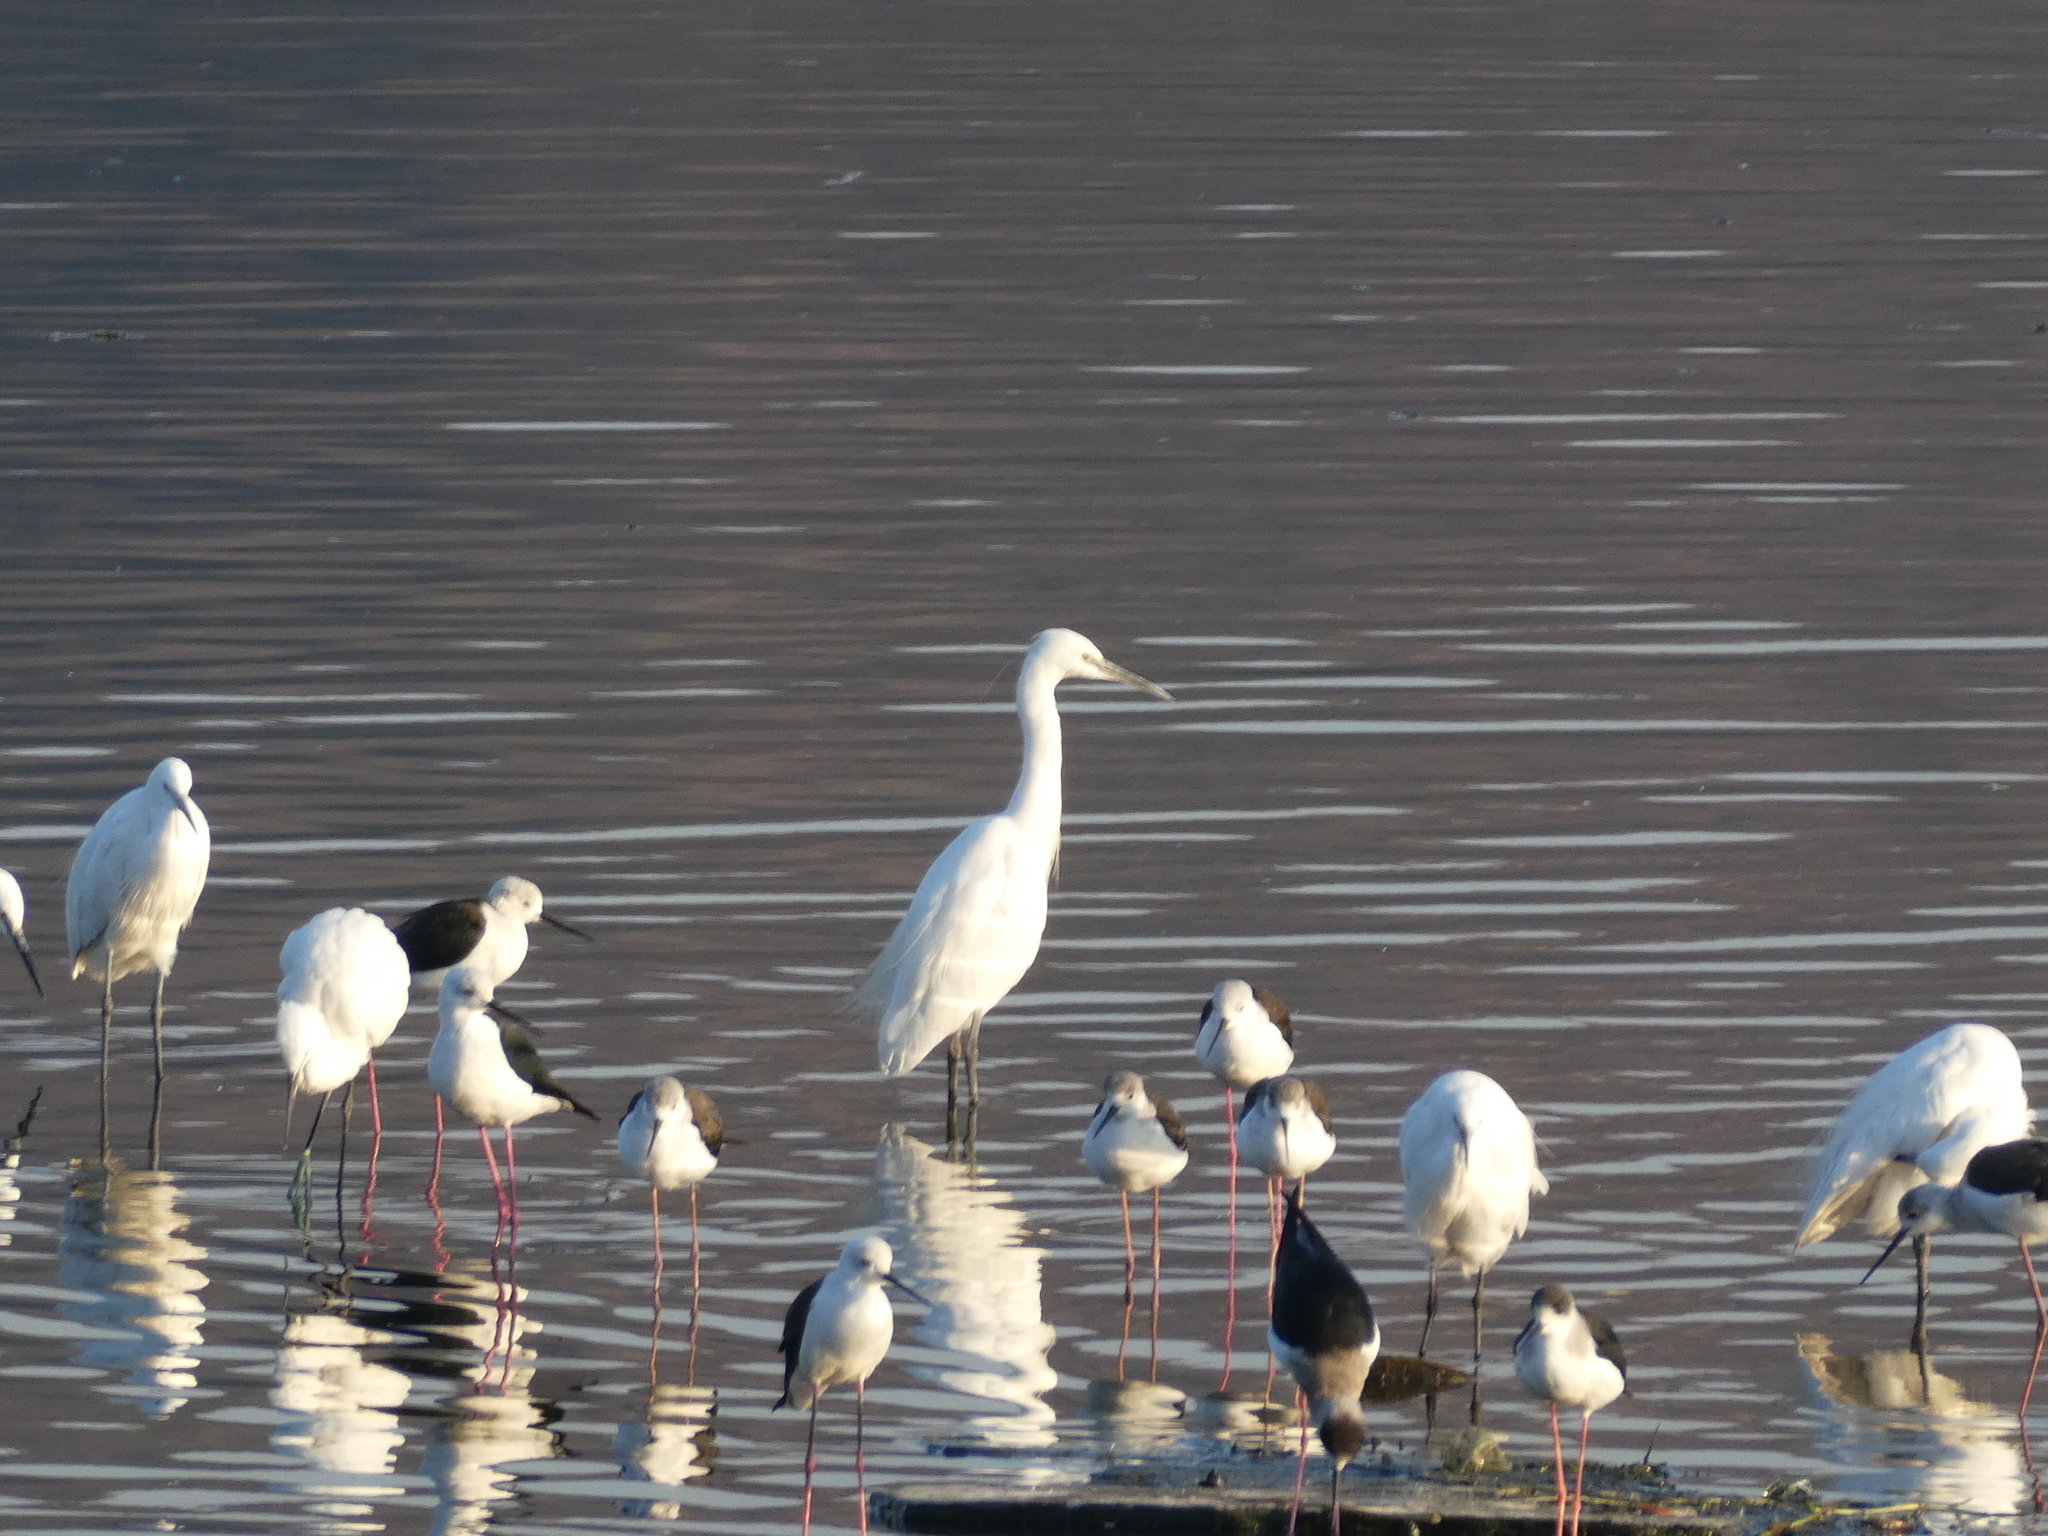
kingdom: Animalia
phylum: Chordata
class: Aves
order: Charadriiformes
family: Recurvirostridae
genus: Himantopus
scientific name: Himantopus himantopus
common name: Black-winged stilt
